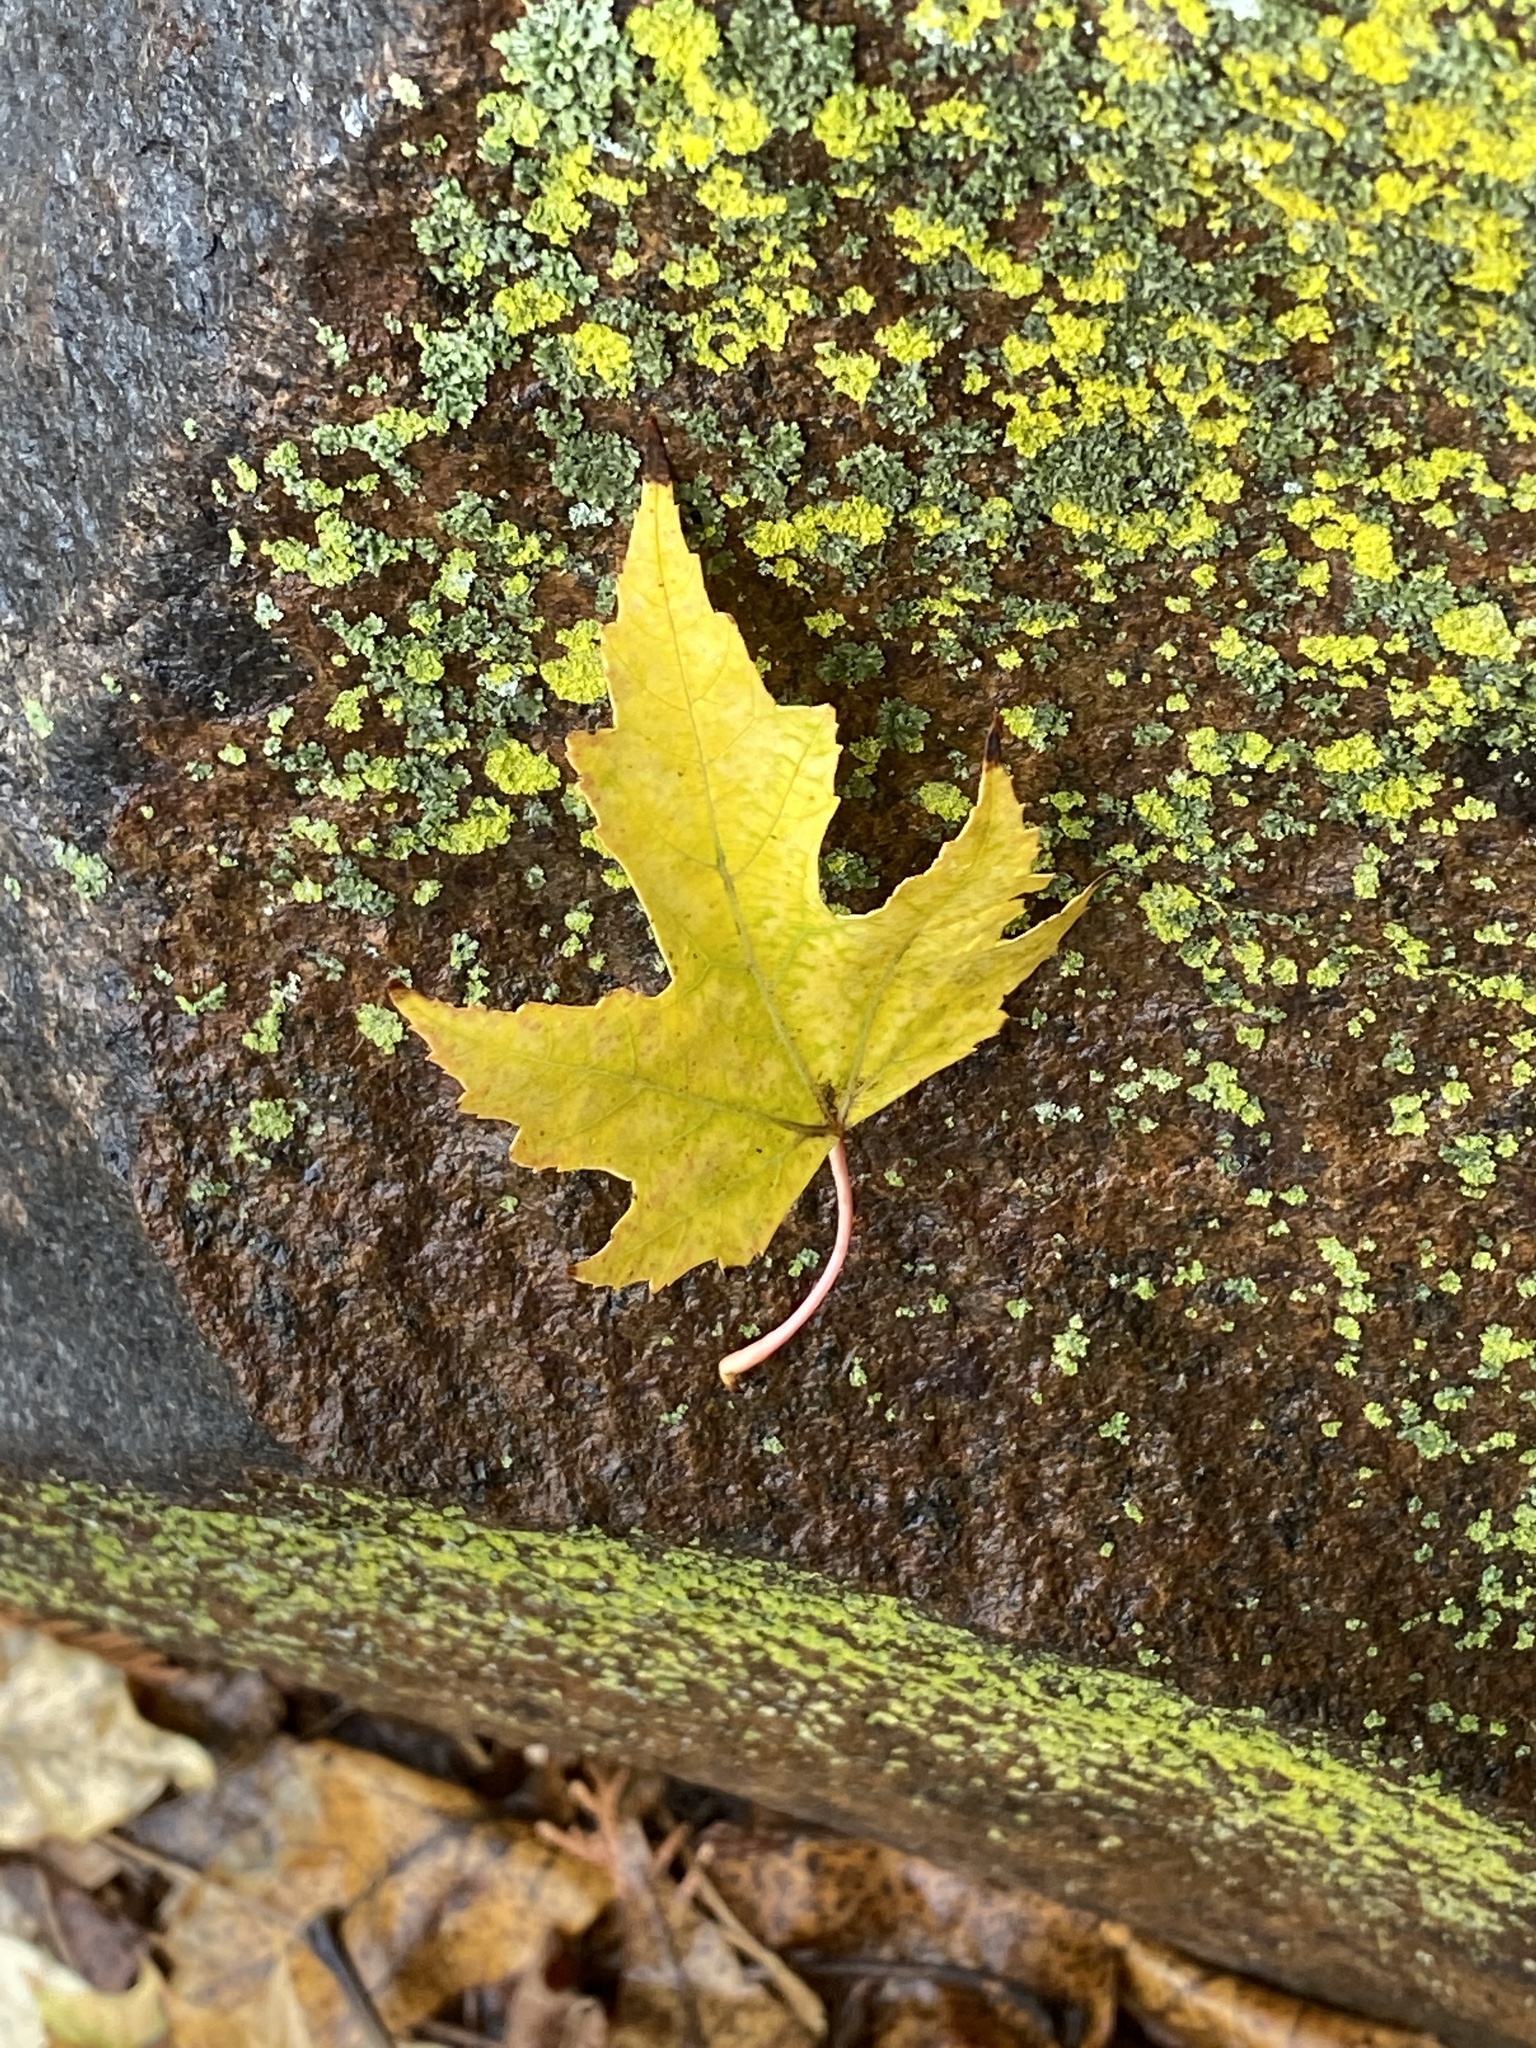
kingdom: Plantae
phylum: Tracheophyta
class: Magnoliopsida
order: Sapindales
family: Sapindaceae
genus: Acer
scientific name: Acer saccharinum
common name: Silver maple
